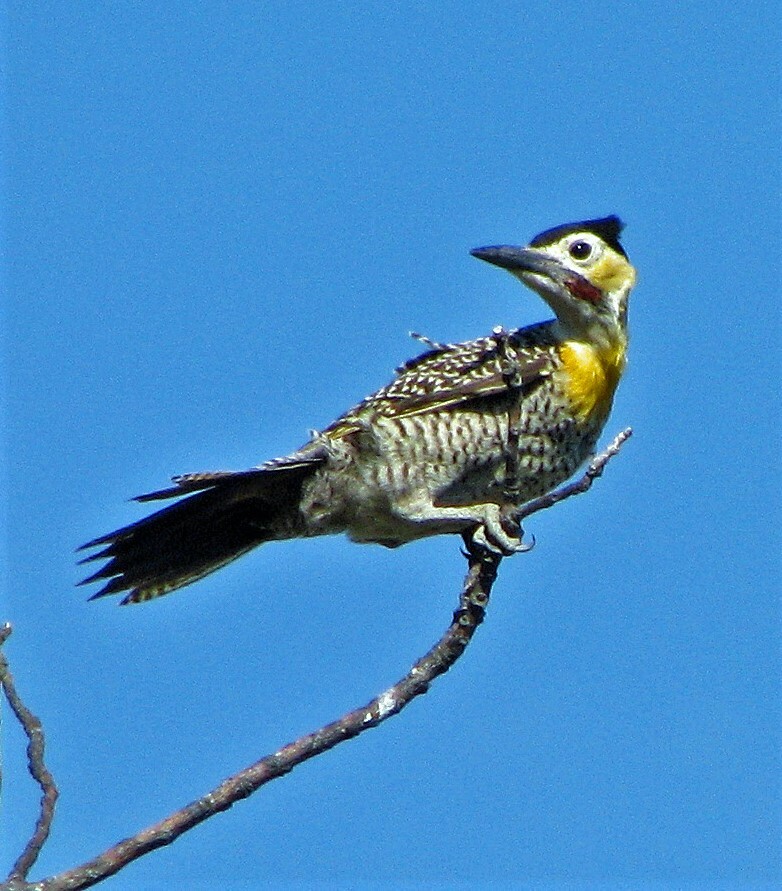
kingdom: Animalia
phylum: Chordata
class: Aves
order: Piciformes
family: Picidae
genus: Colaptes
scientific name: Colaptes campestris
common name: Campo flicker
